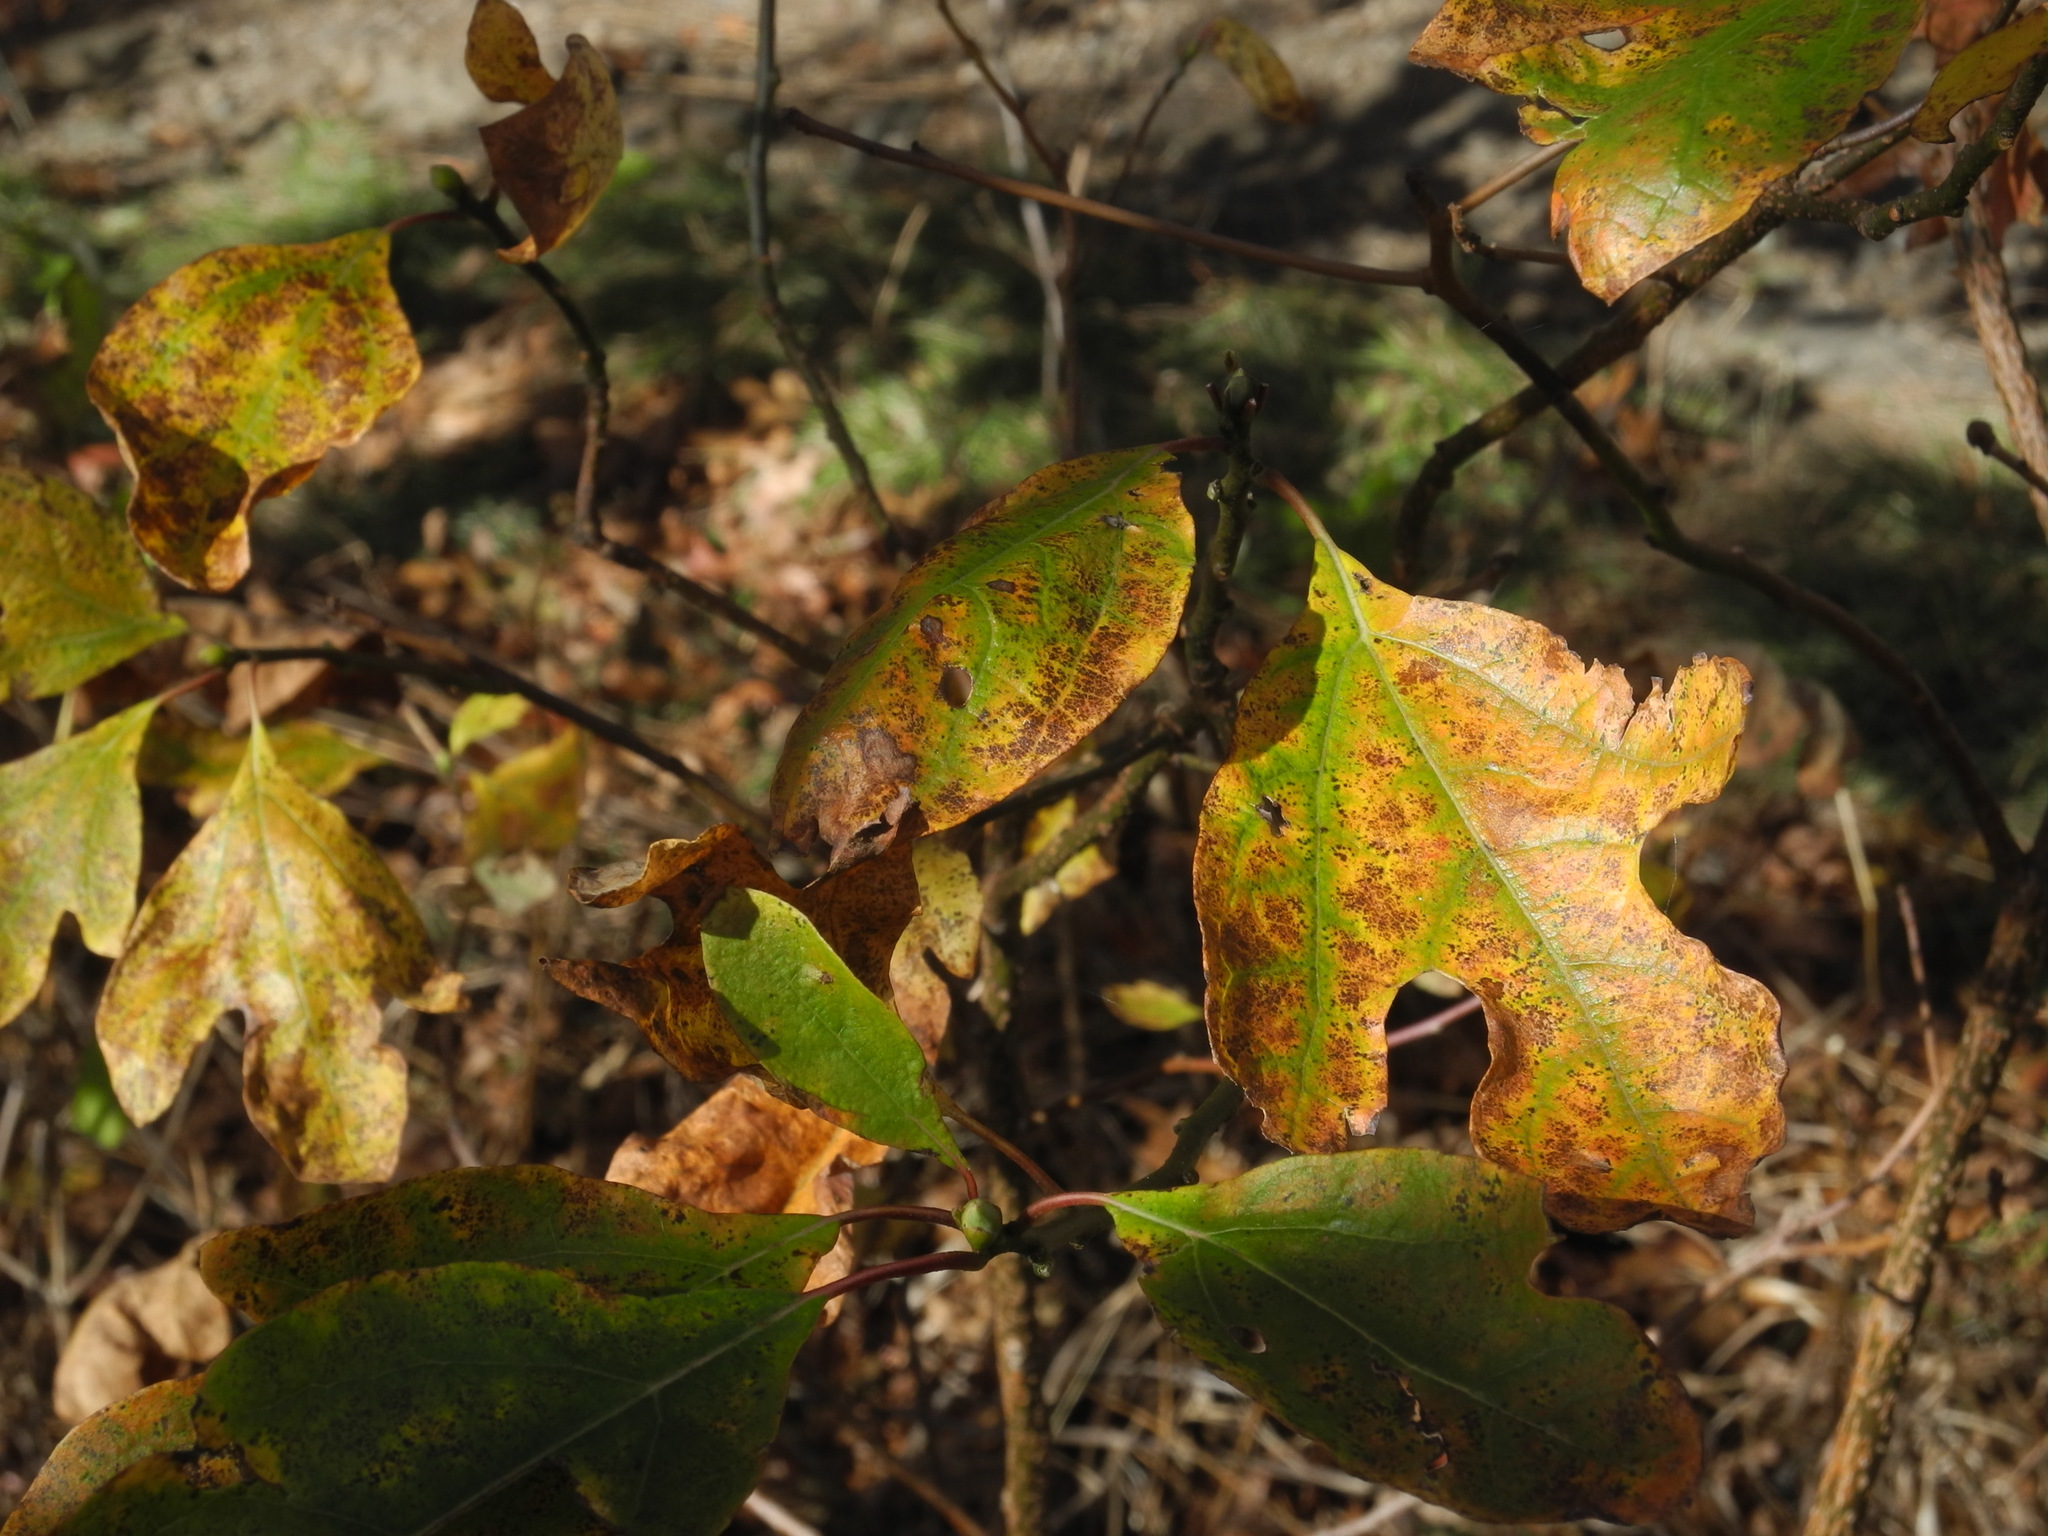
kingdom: Plantae
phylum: Tracheophyta
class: Magnoliopsida
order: Laurales
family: Lauraceae
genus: Sassafras
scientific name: Sassafras albidum
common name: Sassafras
